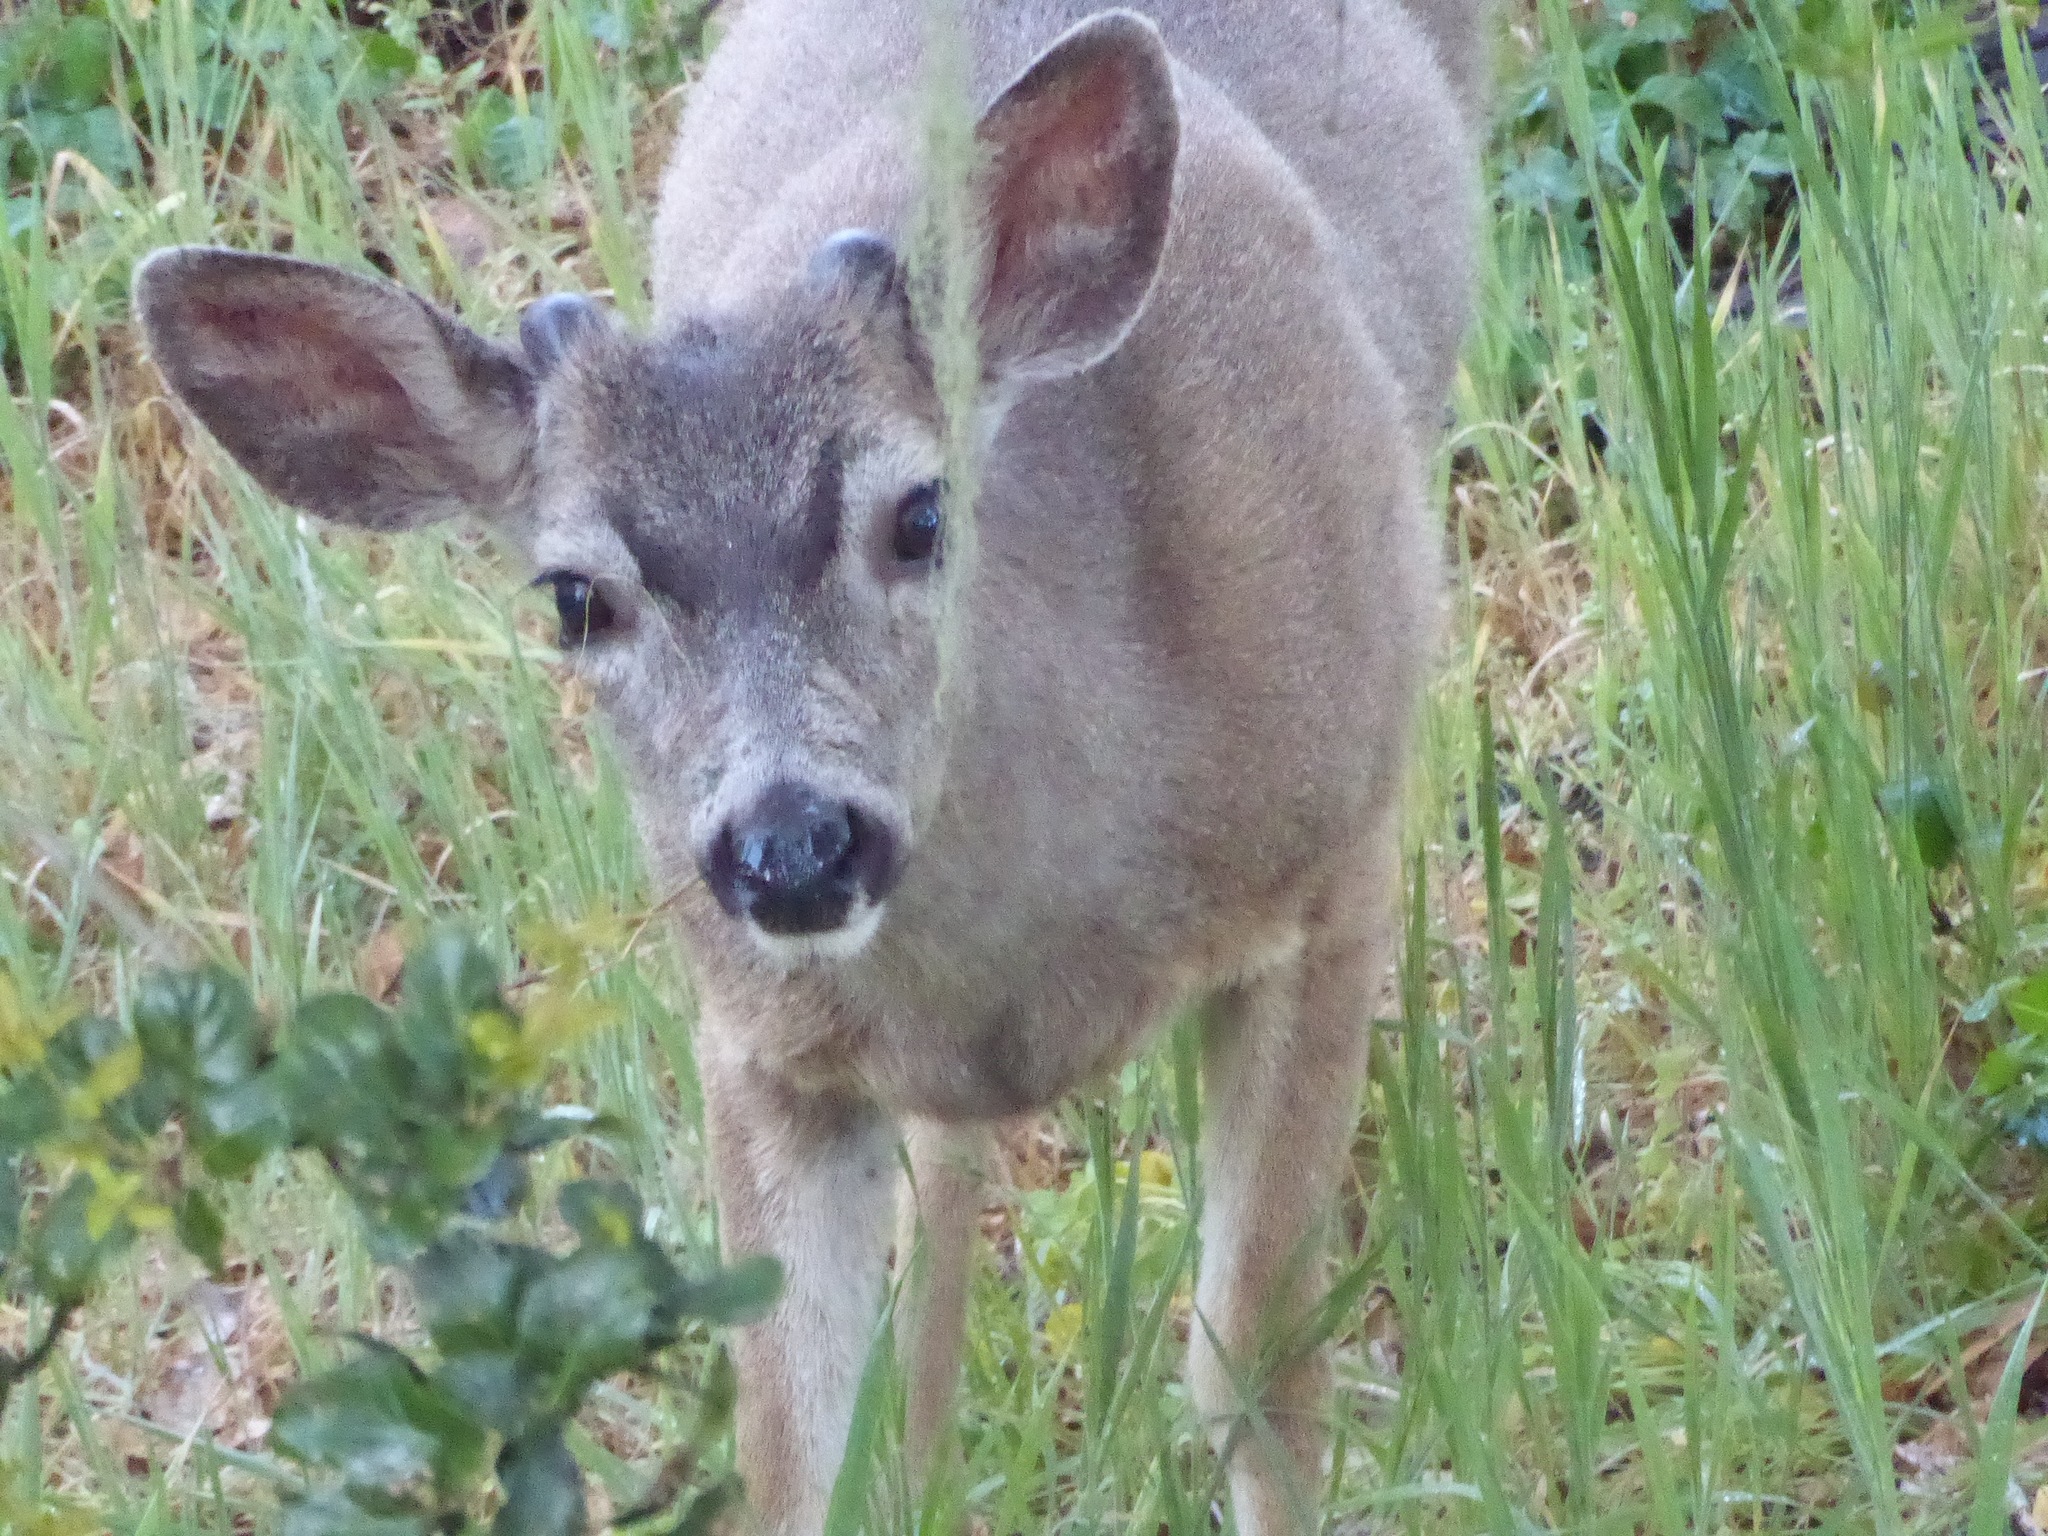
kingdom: Animalia
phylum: Chordata
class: Mammalia
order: Artiodactyla
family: Cervidae
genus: Odocoileus
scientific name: Odocoileus hemionus
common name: Mule deer
